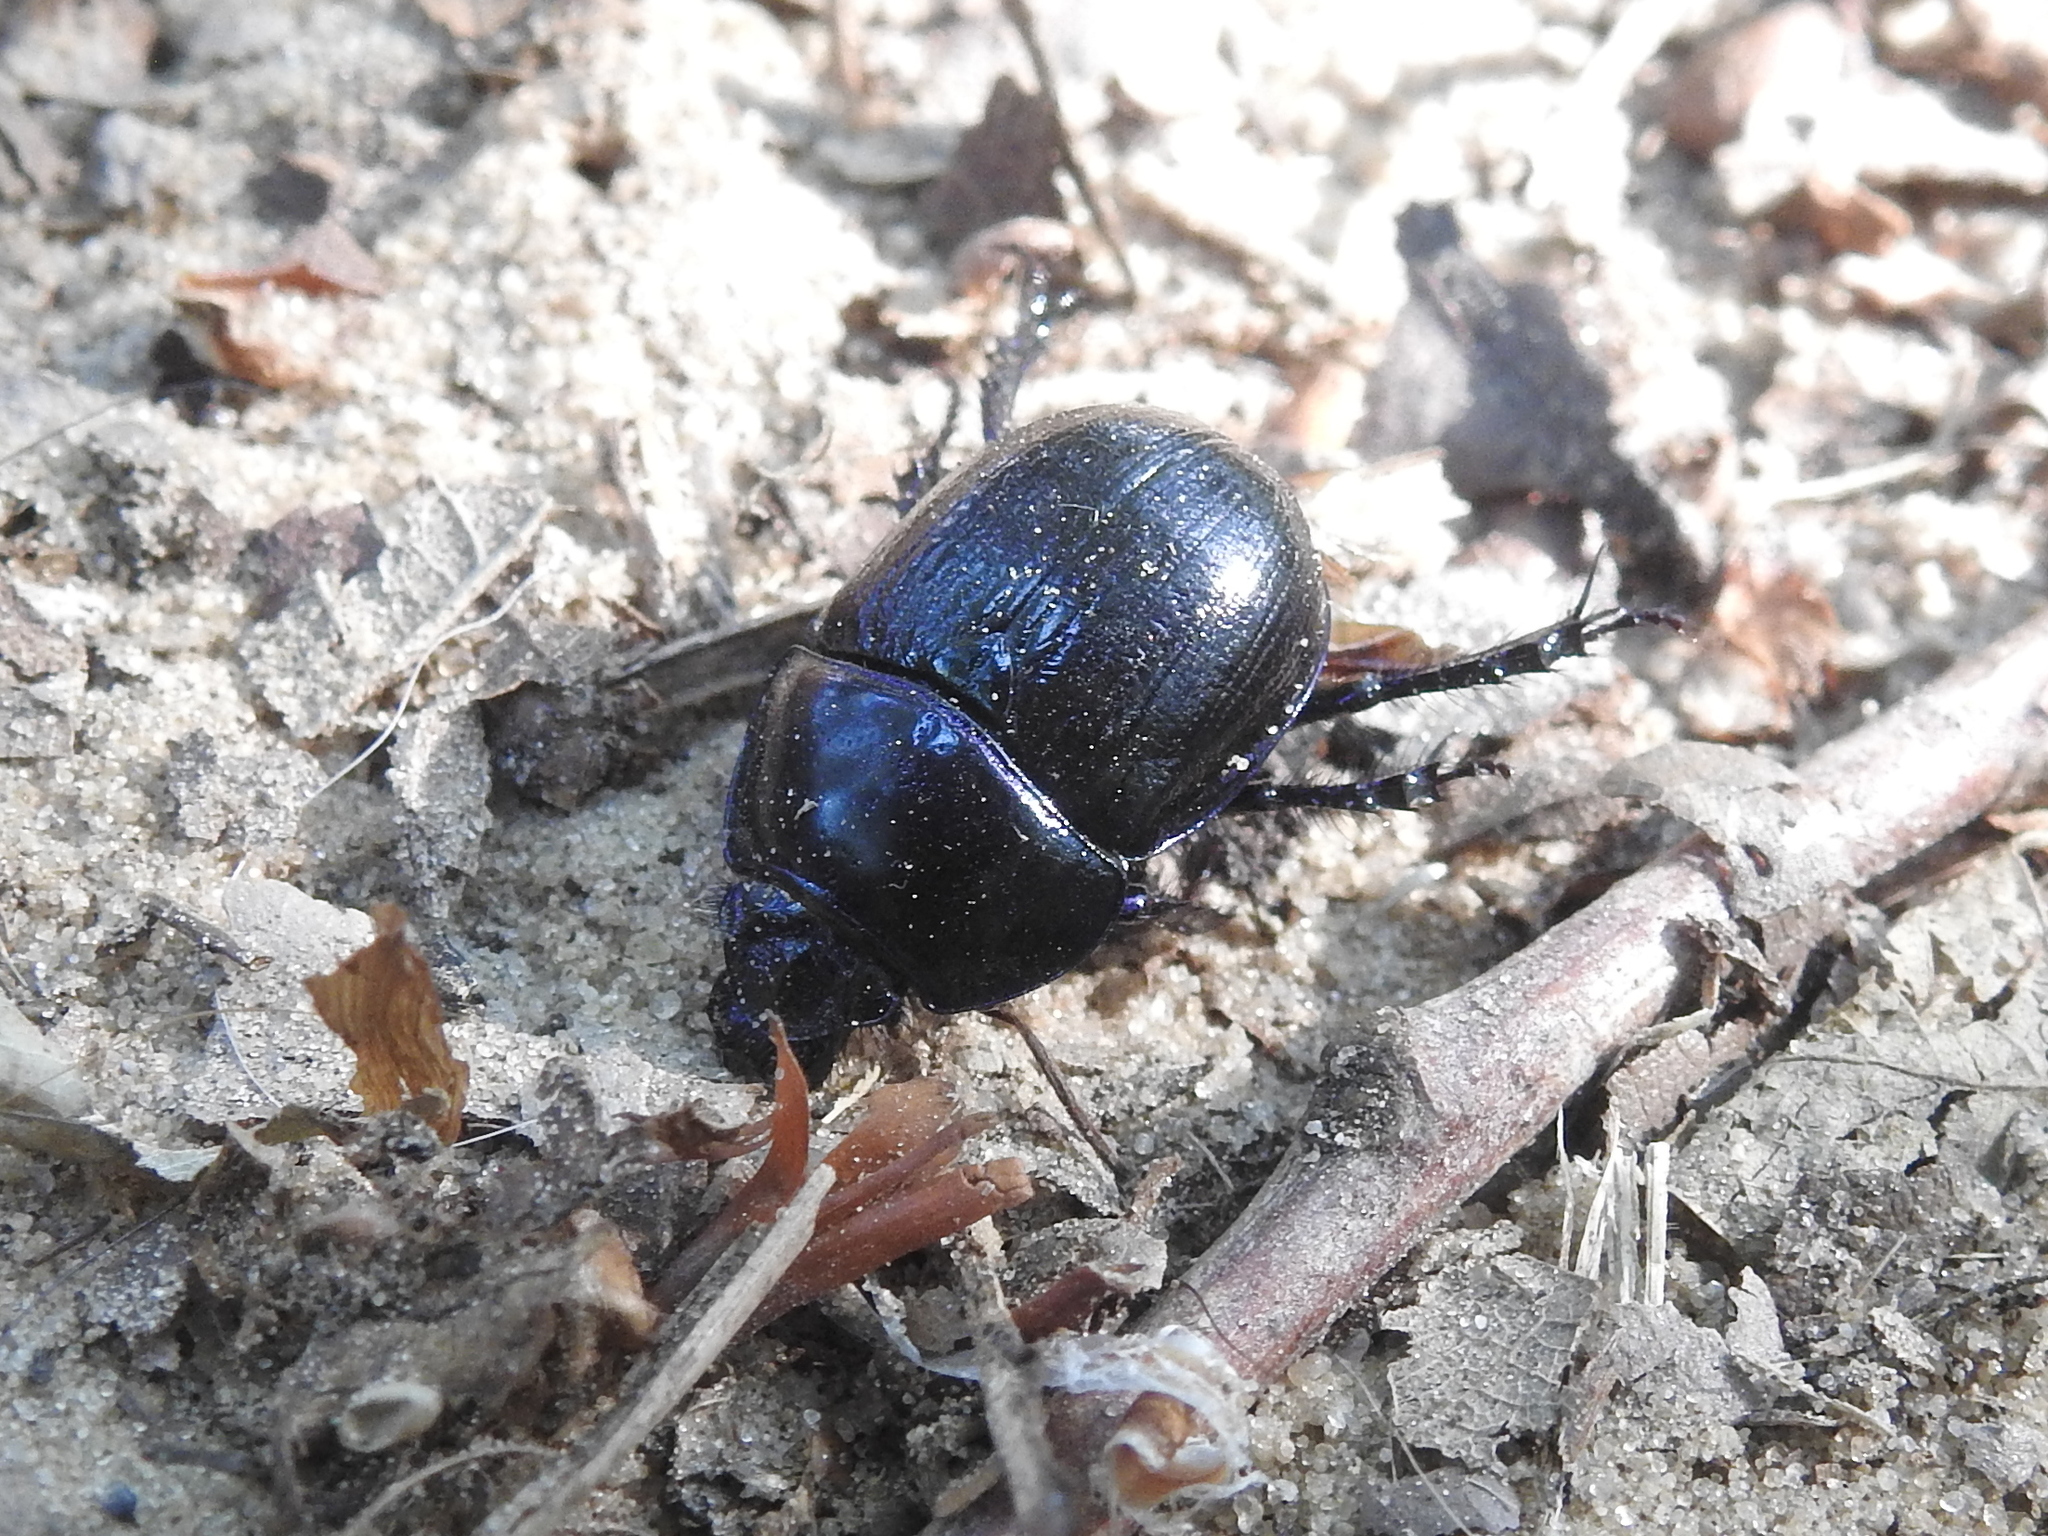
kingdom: Animalia
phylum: Arthropoda
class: Insecta
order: Coleoptera
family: Geotrupidae
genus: Anoplotrupes
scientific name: Anoplotrupes stercorosus
